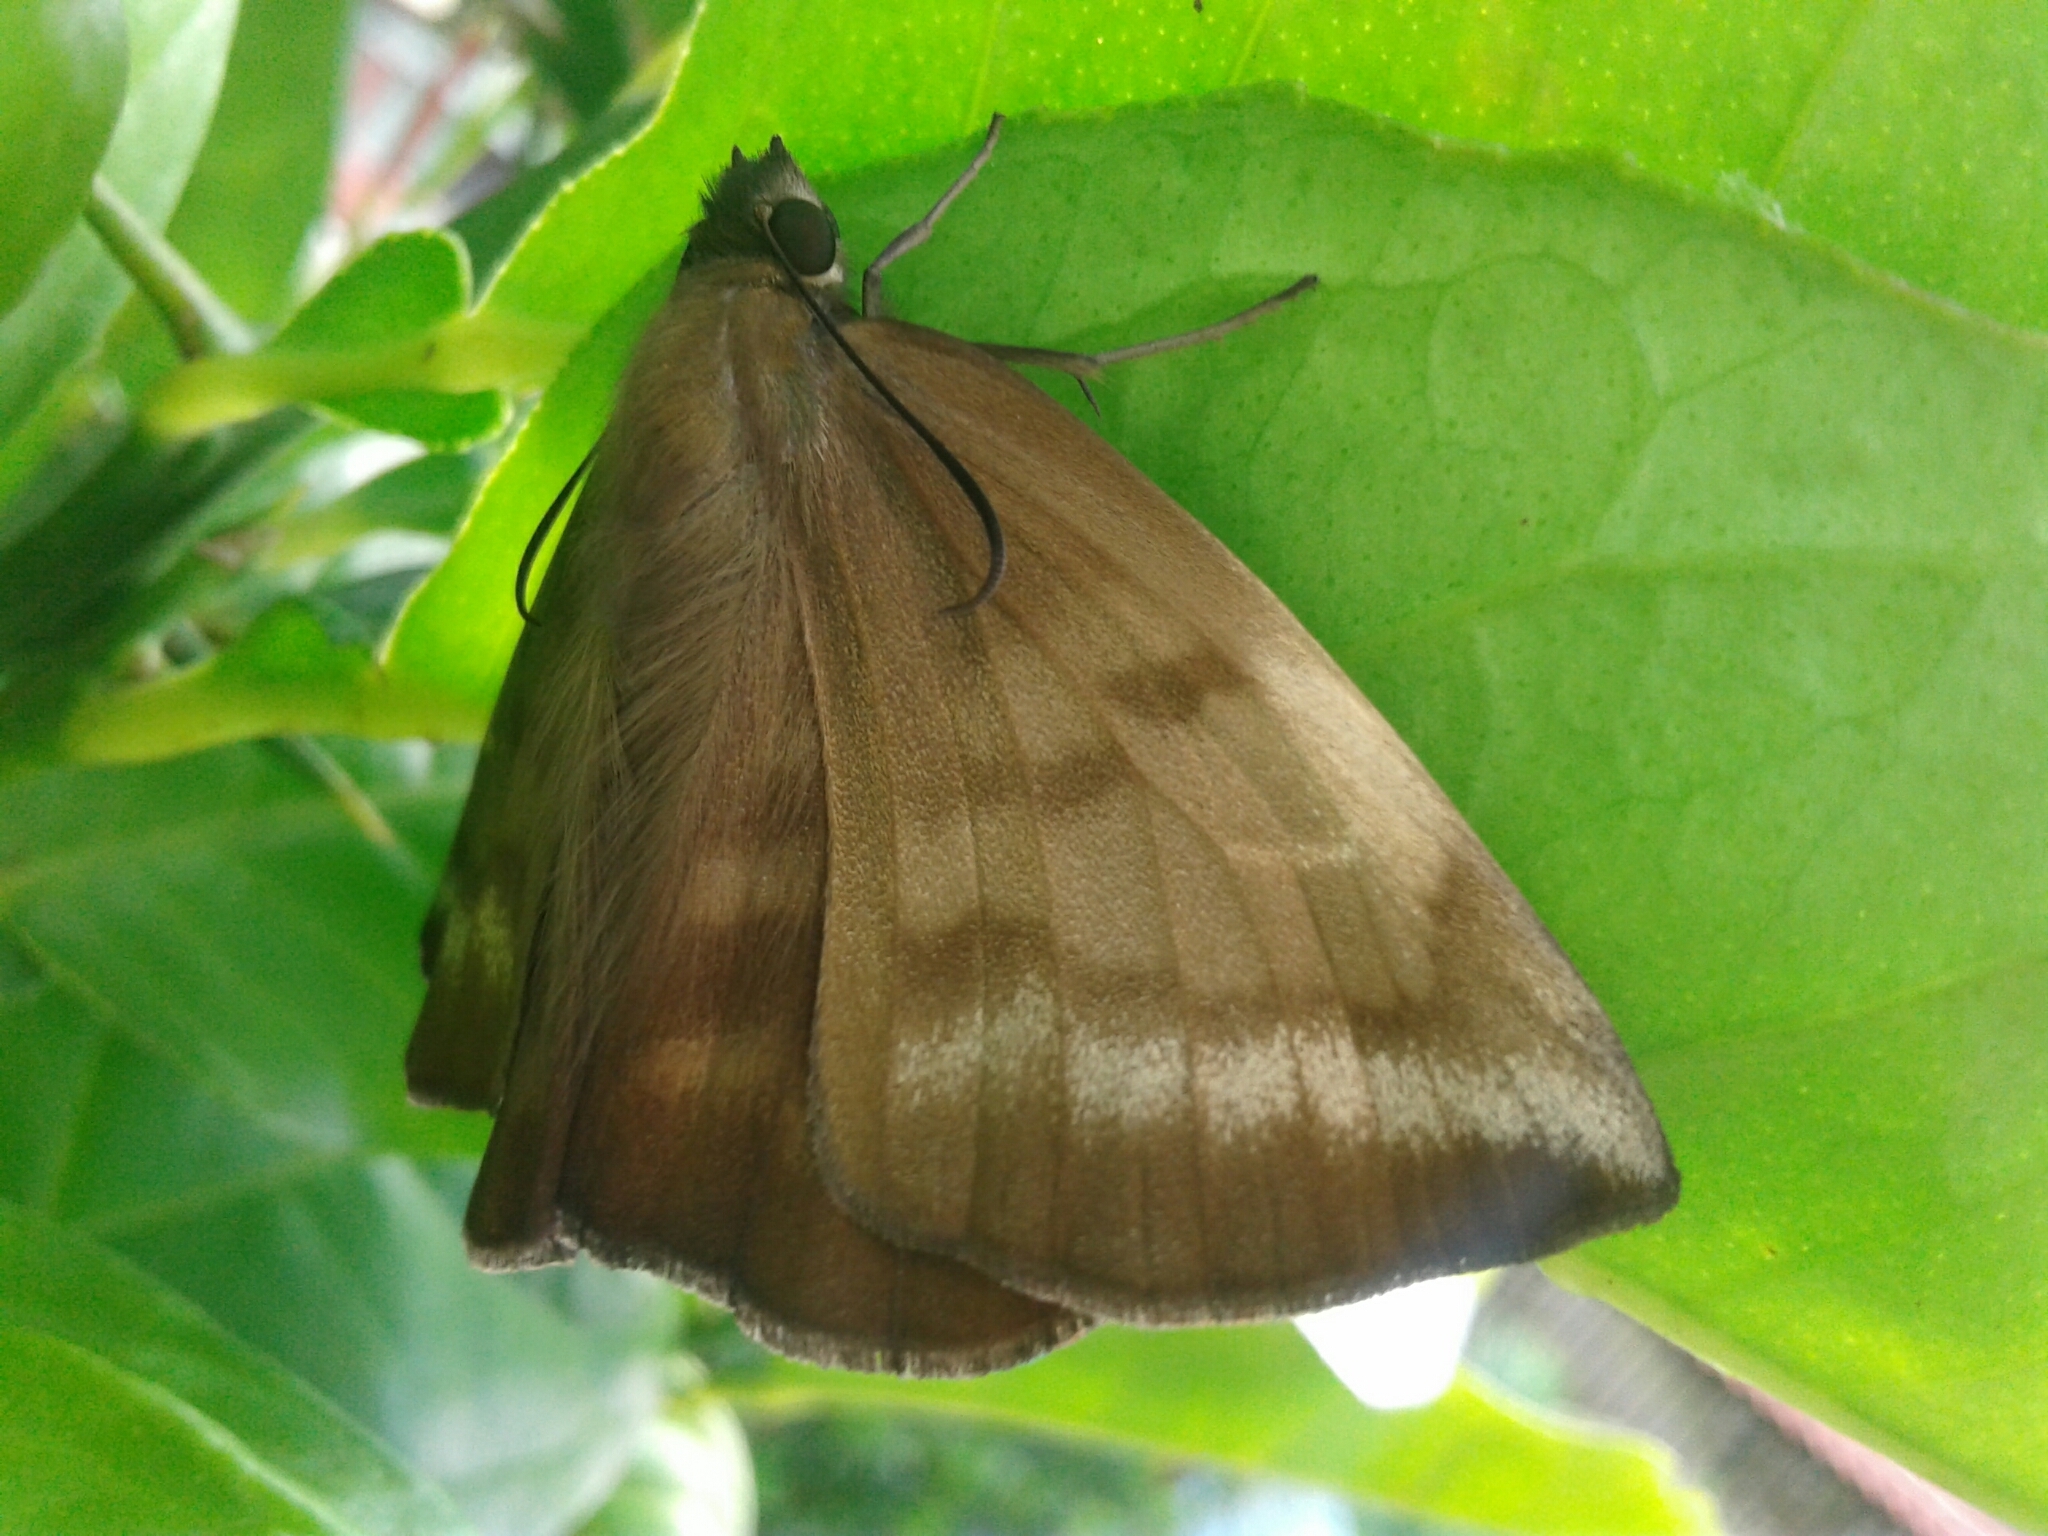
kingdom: Animalia
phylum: Arthropoda
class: Insecta
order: Lepidoptera
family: Hesperiidae
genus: Achlyodes
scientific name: Achlyodes pallida
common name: Pale sicklewing
